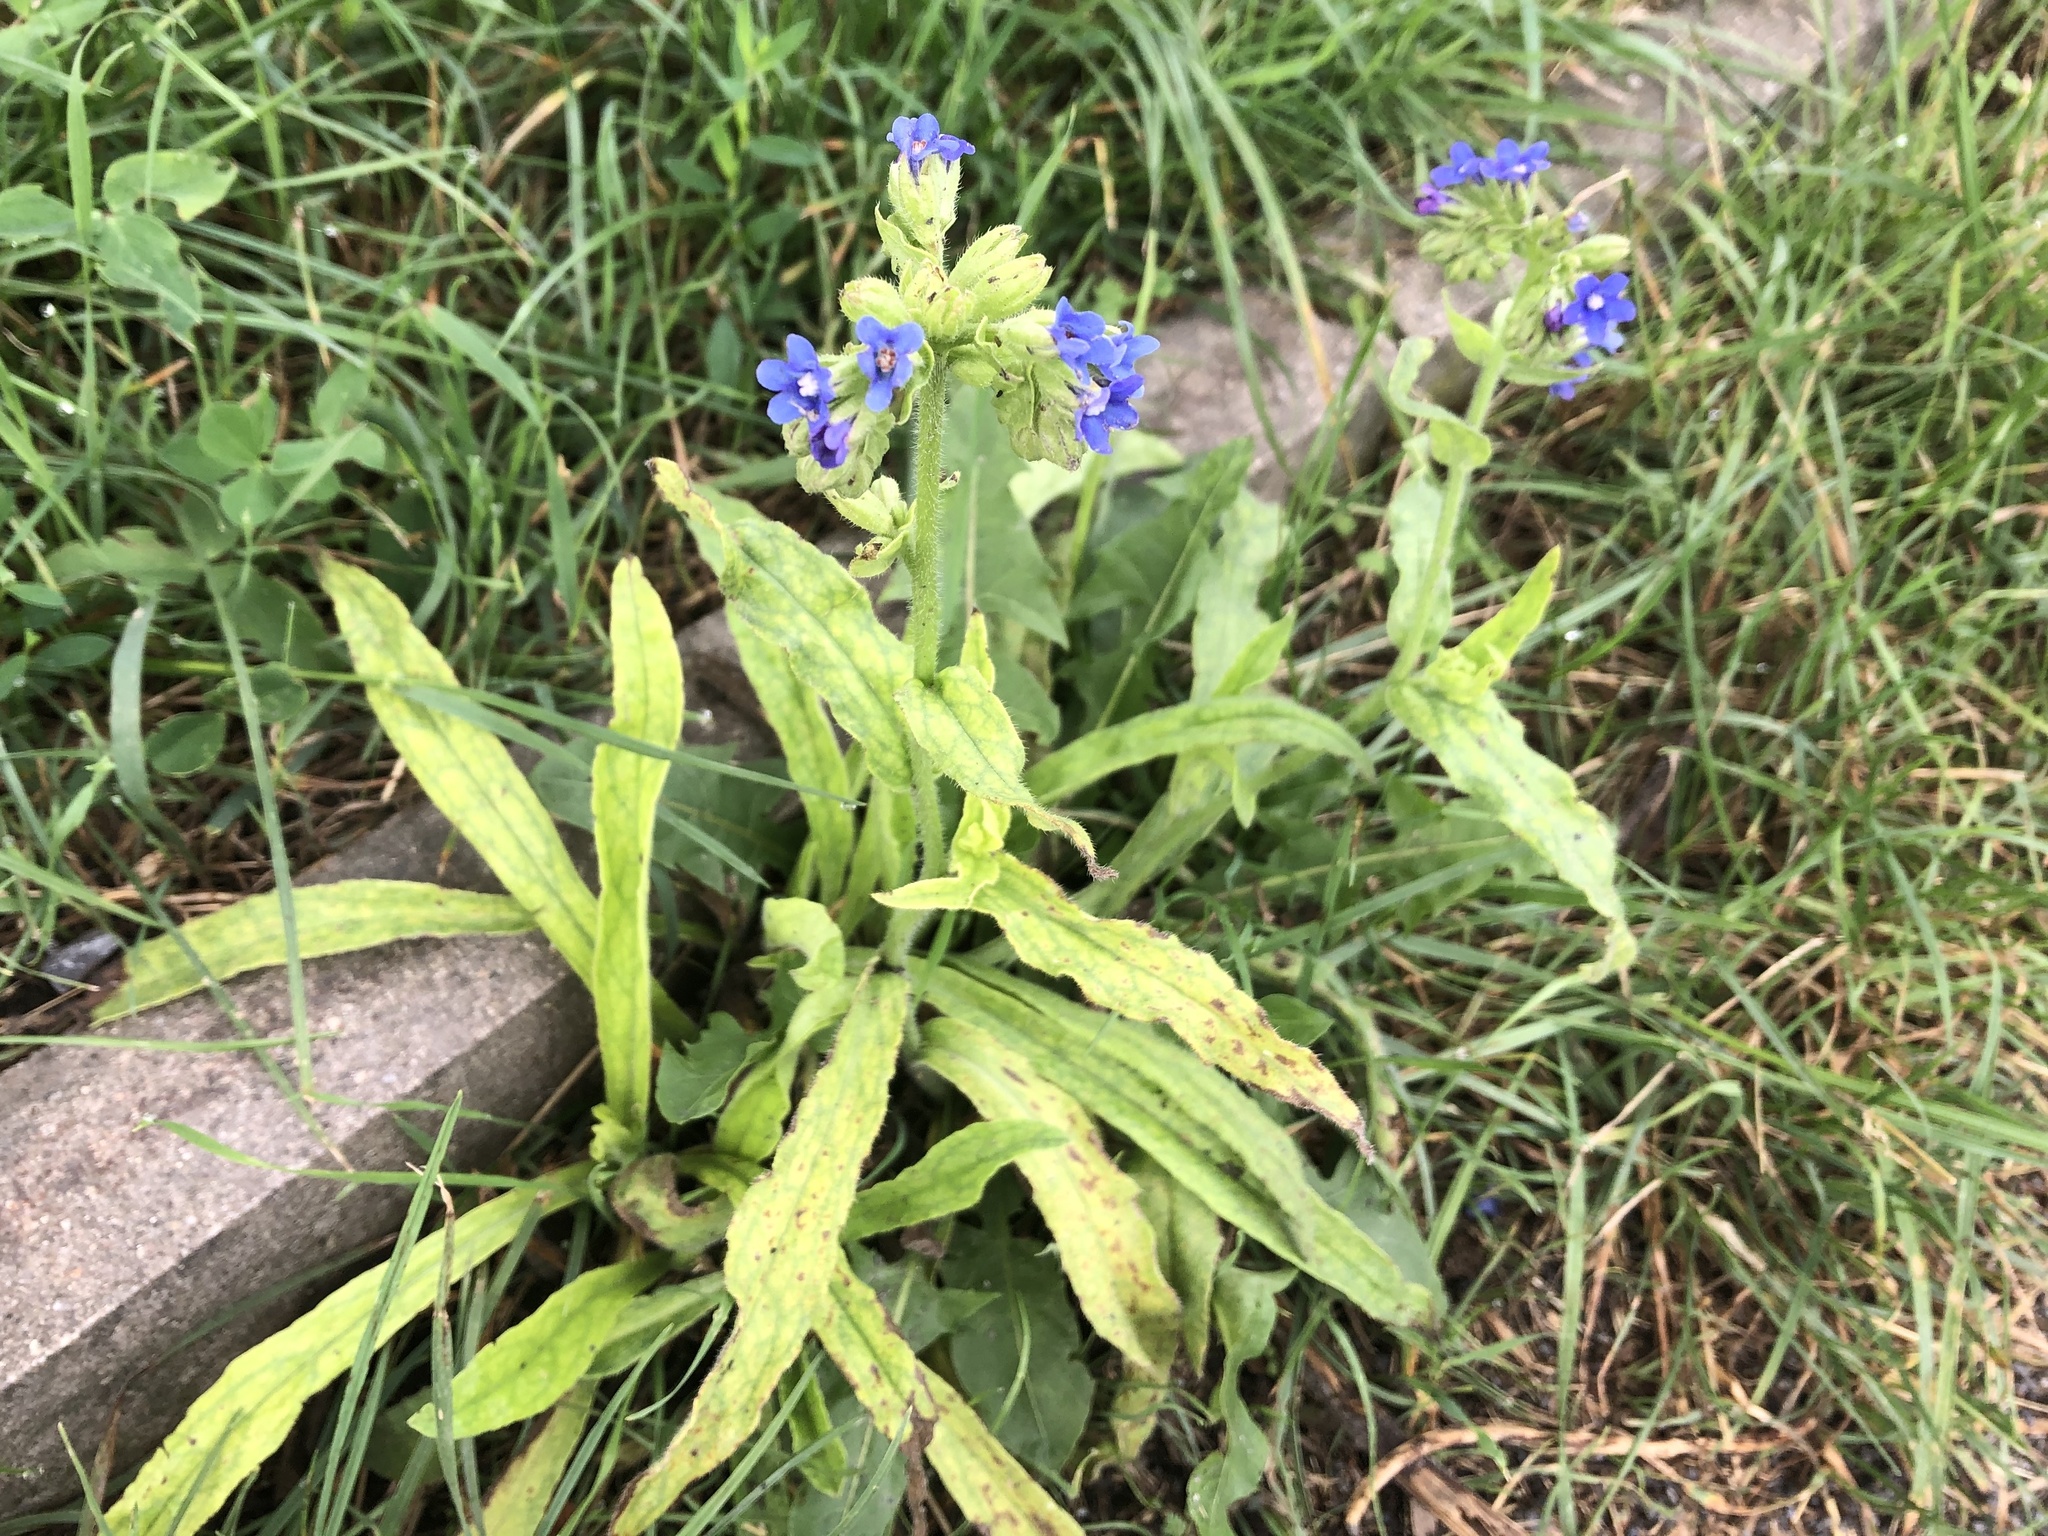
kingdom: Plantae
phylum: Tracheophyta
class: Magnoliopsida
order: Boraginales
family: Boraginaceae
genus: Anchusa
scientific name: Anchusa officinalis
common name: Alkanet
